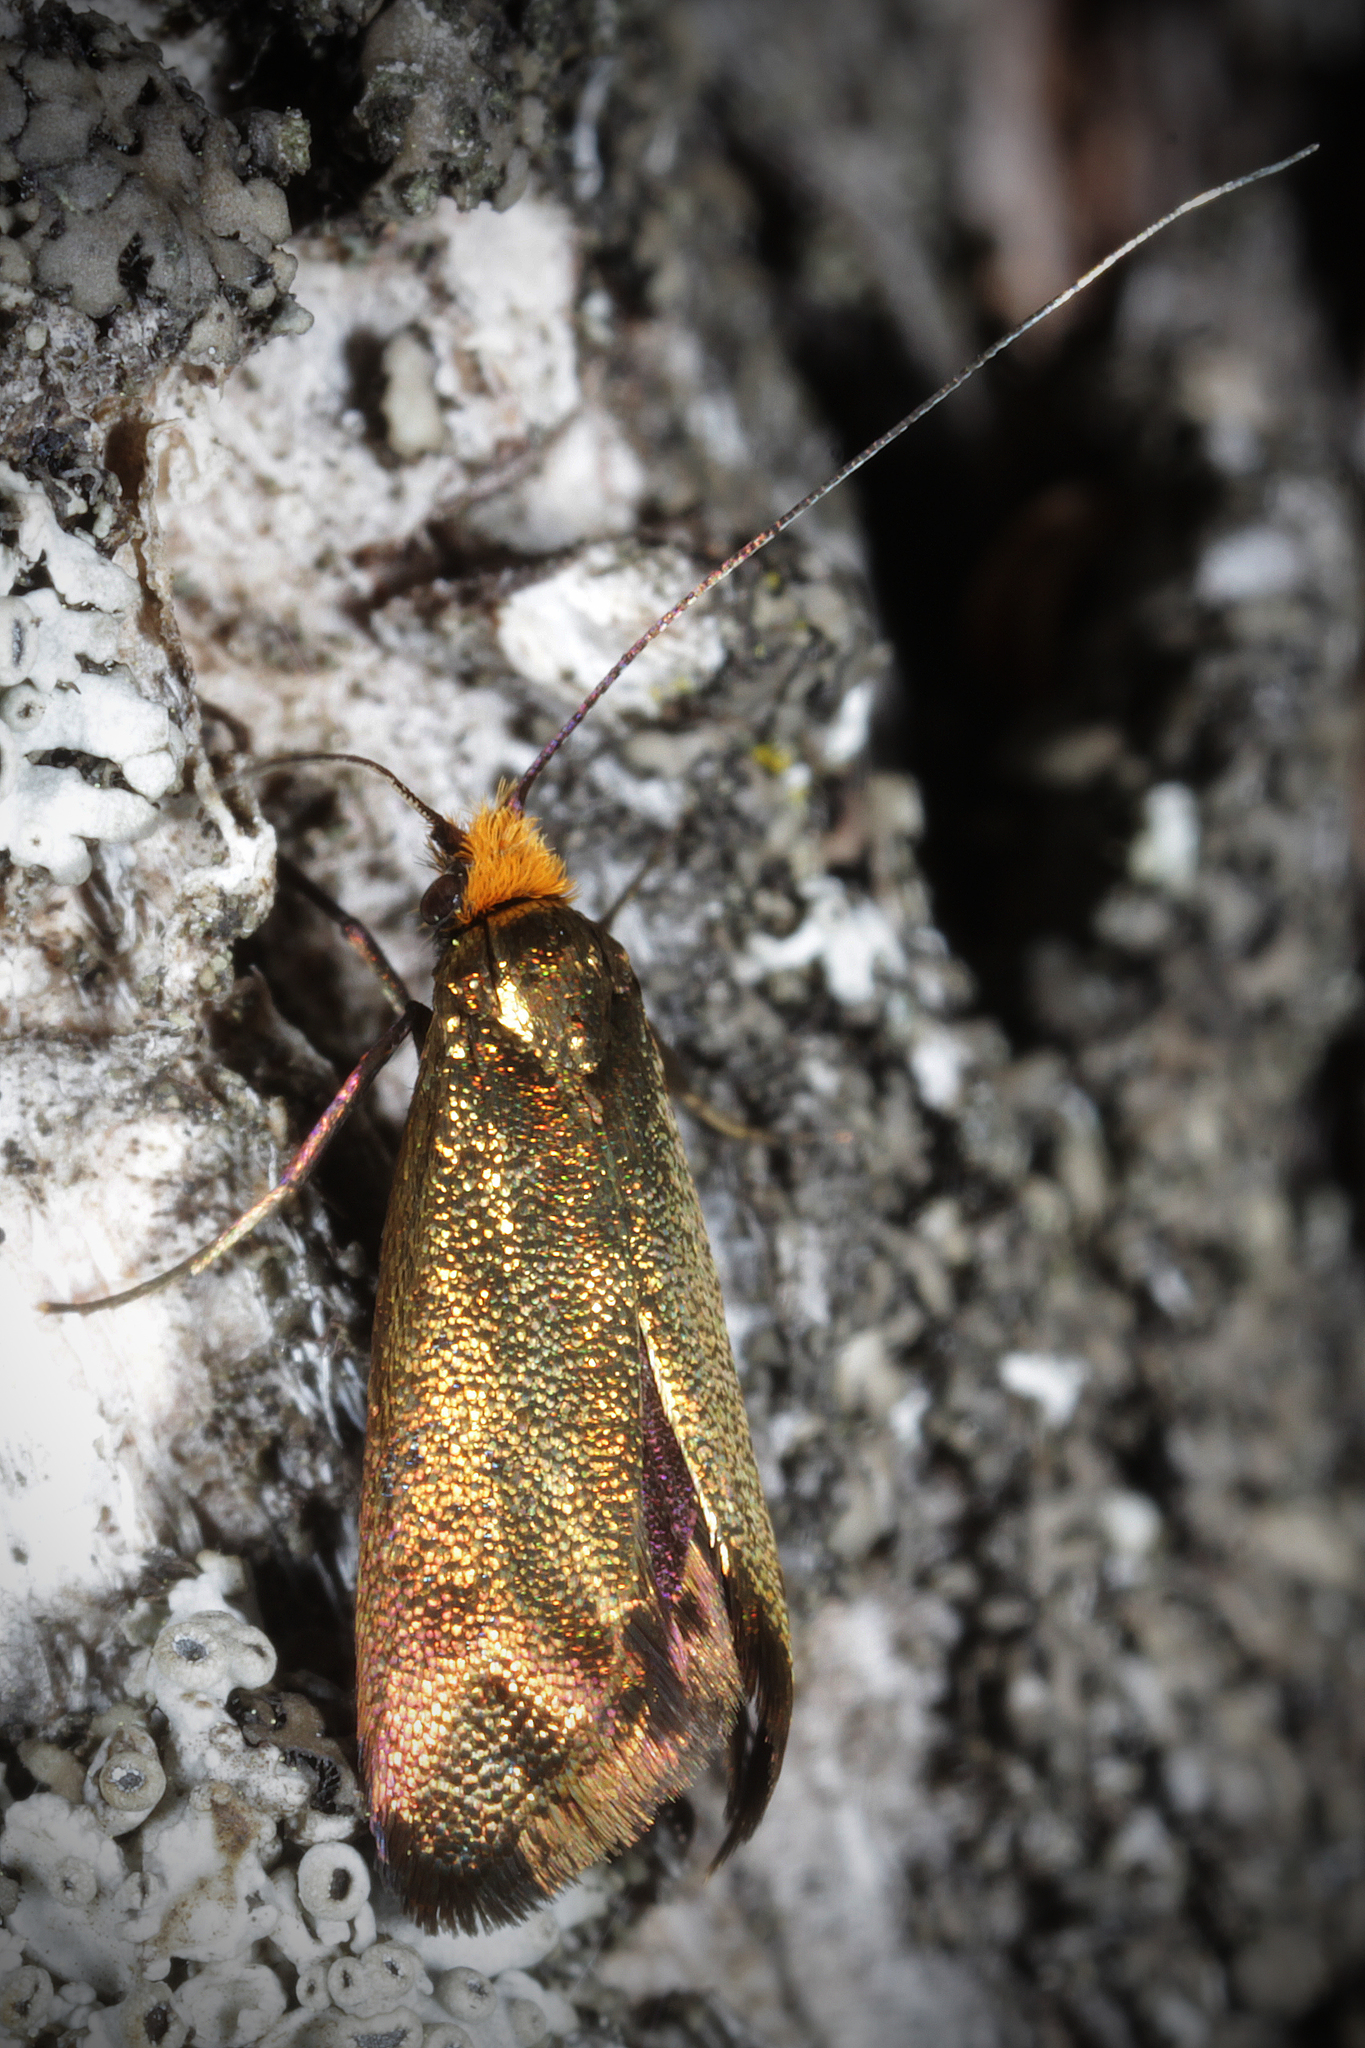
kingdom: Animalia
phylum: Arthropoda
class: Insecta
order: Lepidoptera
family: Adelidae
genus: Adela
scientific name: Adela cuprella
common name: Early long-horn
